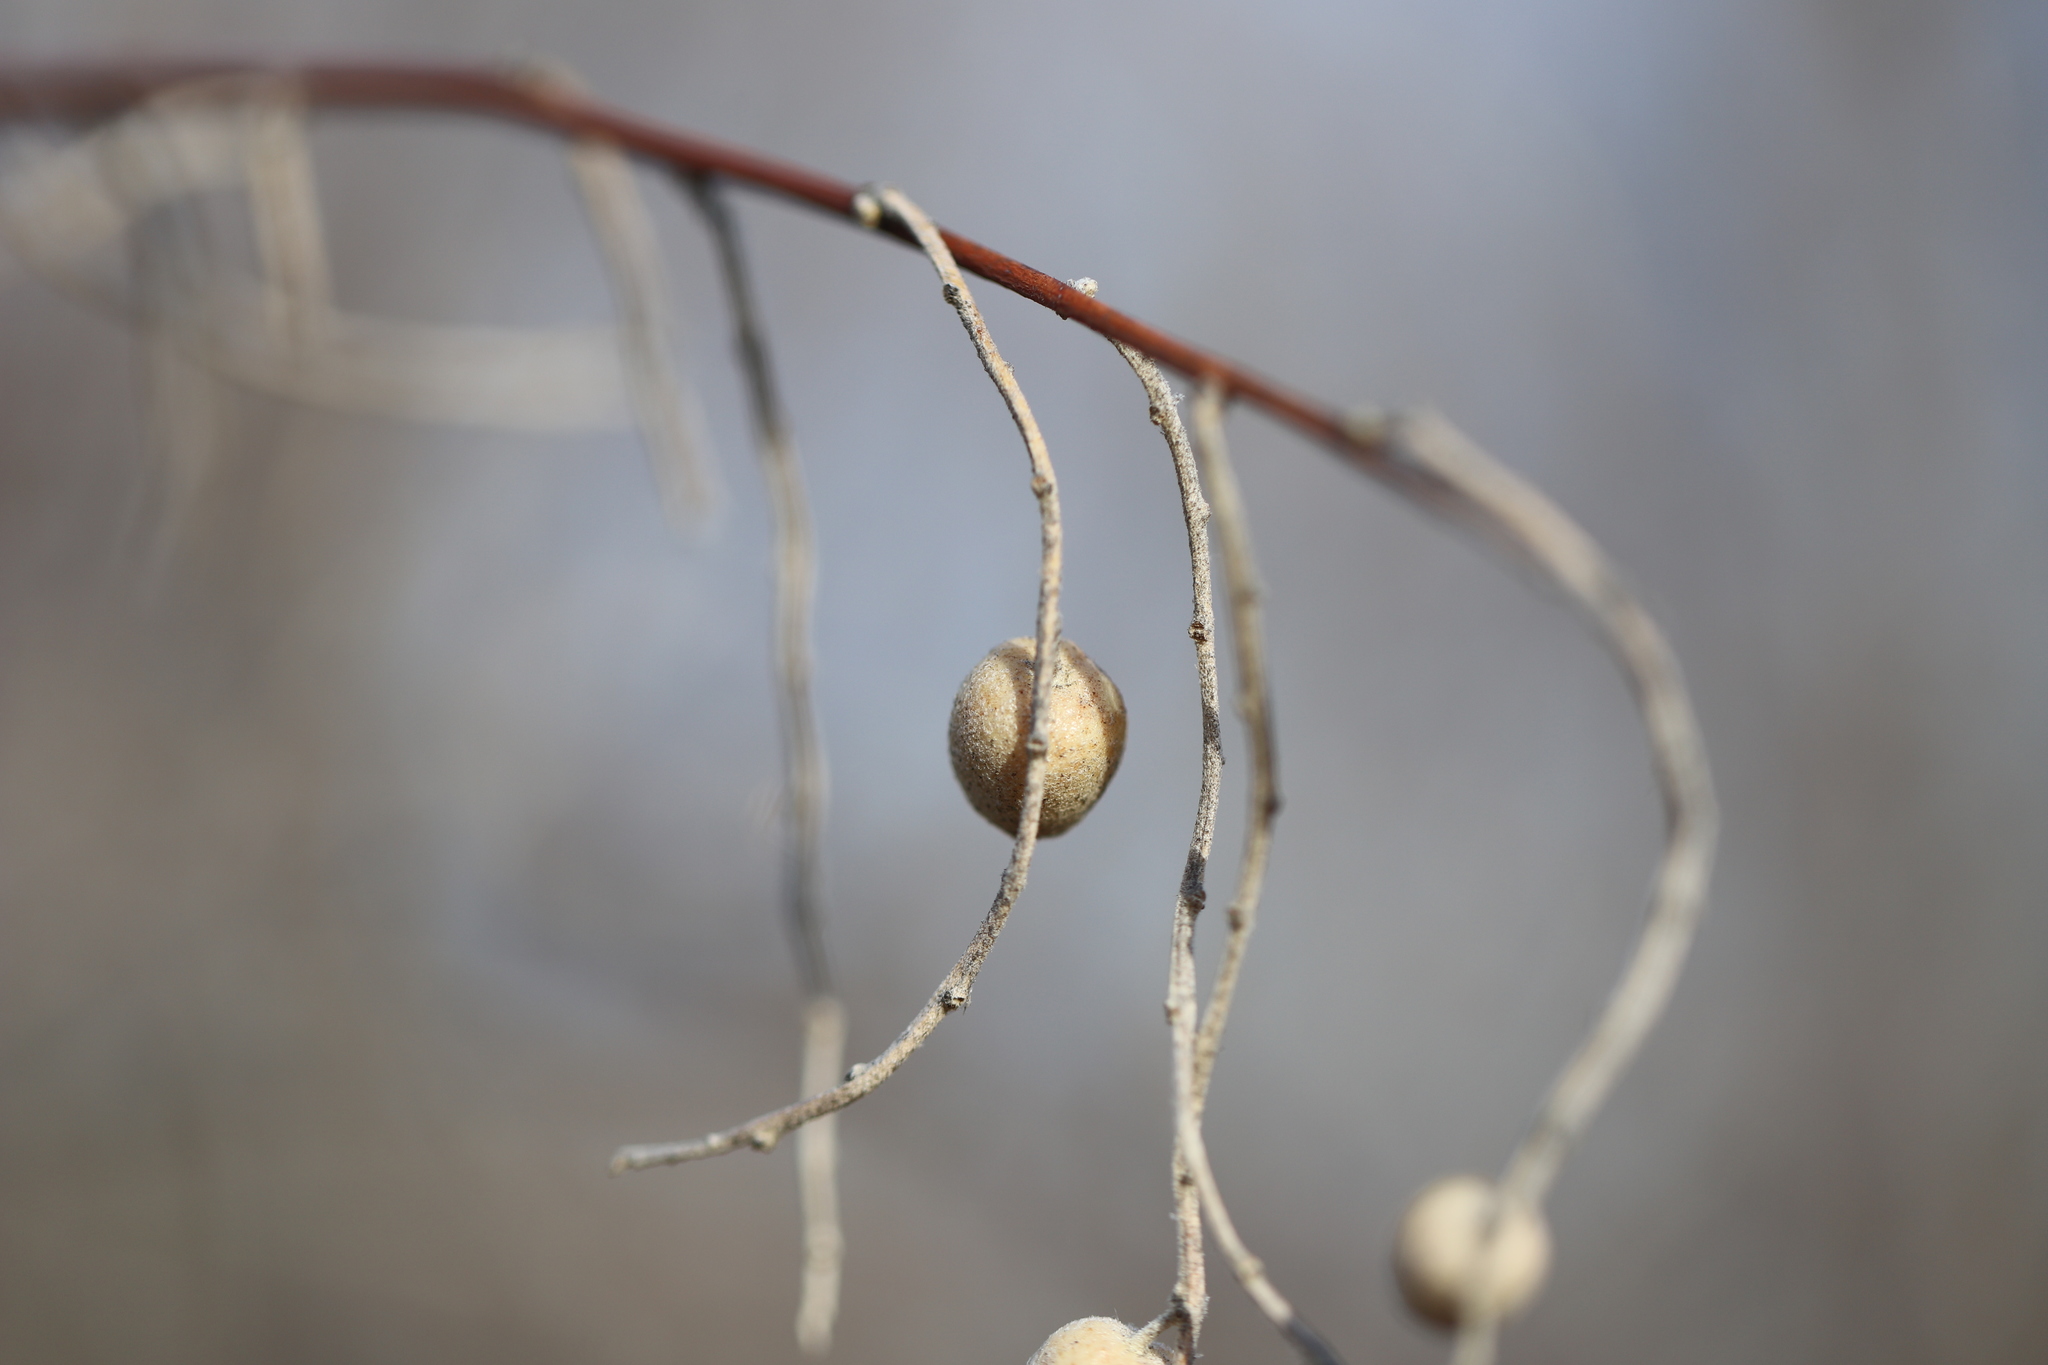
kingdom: Plantae
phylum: Tracheophyta
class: Magnoliopsida
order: Rosales
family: Elaeagnaceae
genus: Elaeagnus
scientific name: Elaeagnus angustifolia
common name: Russian olive
